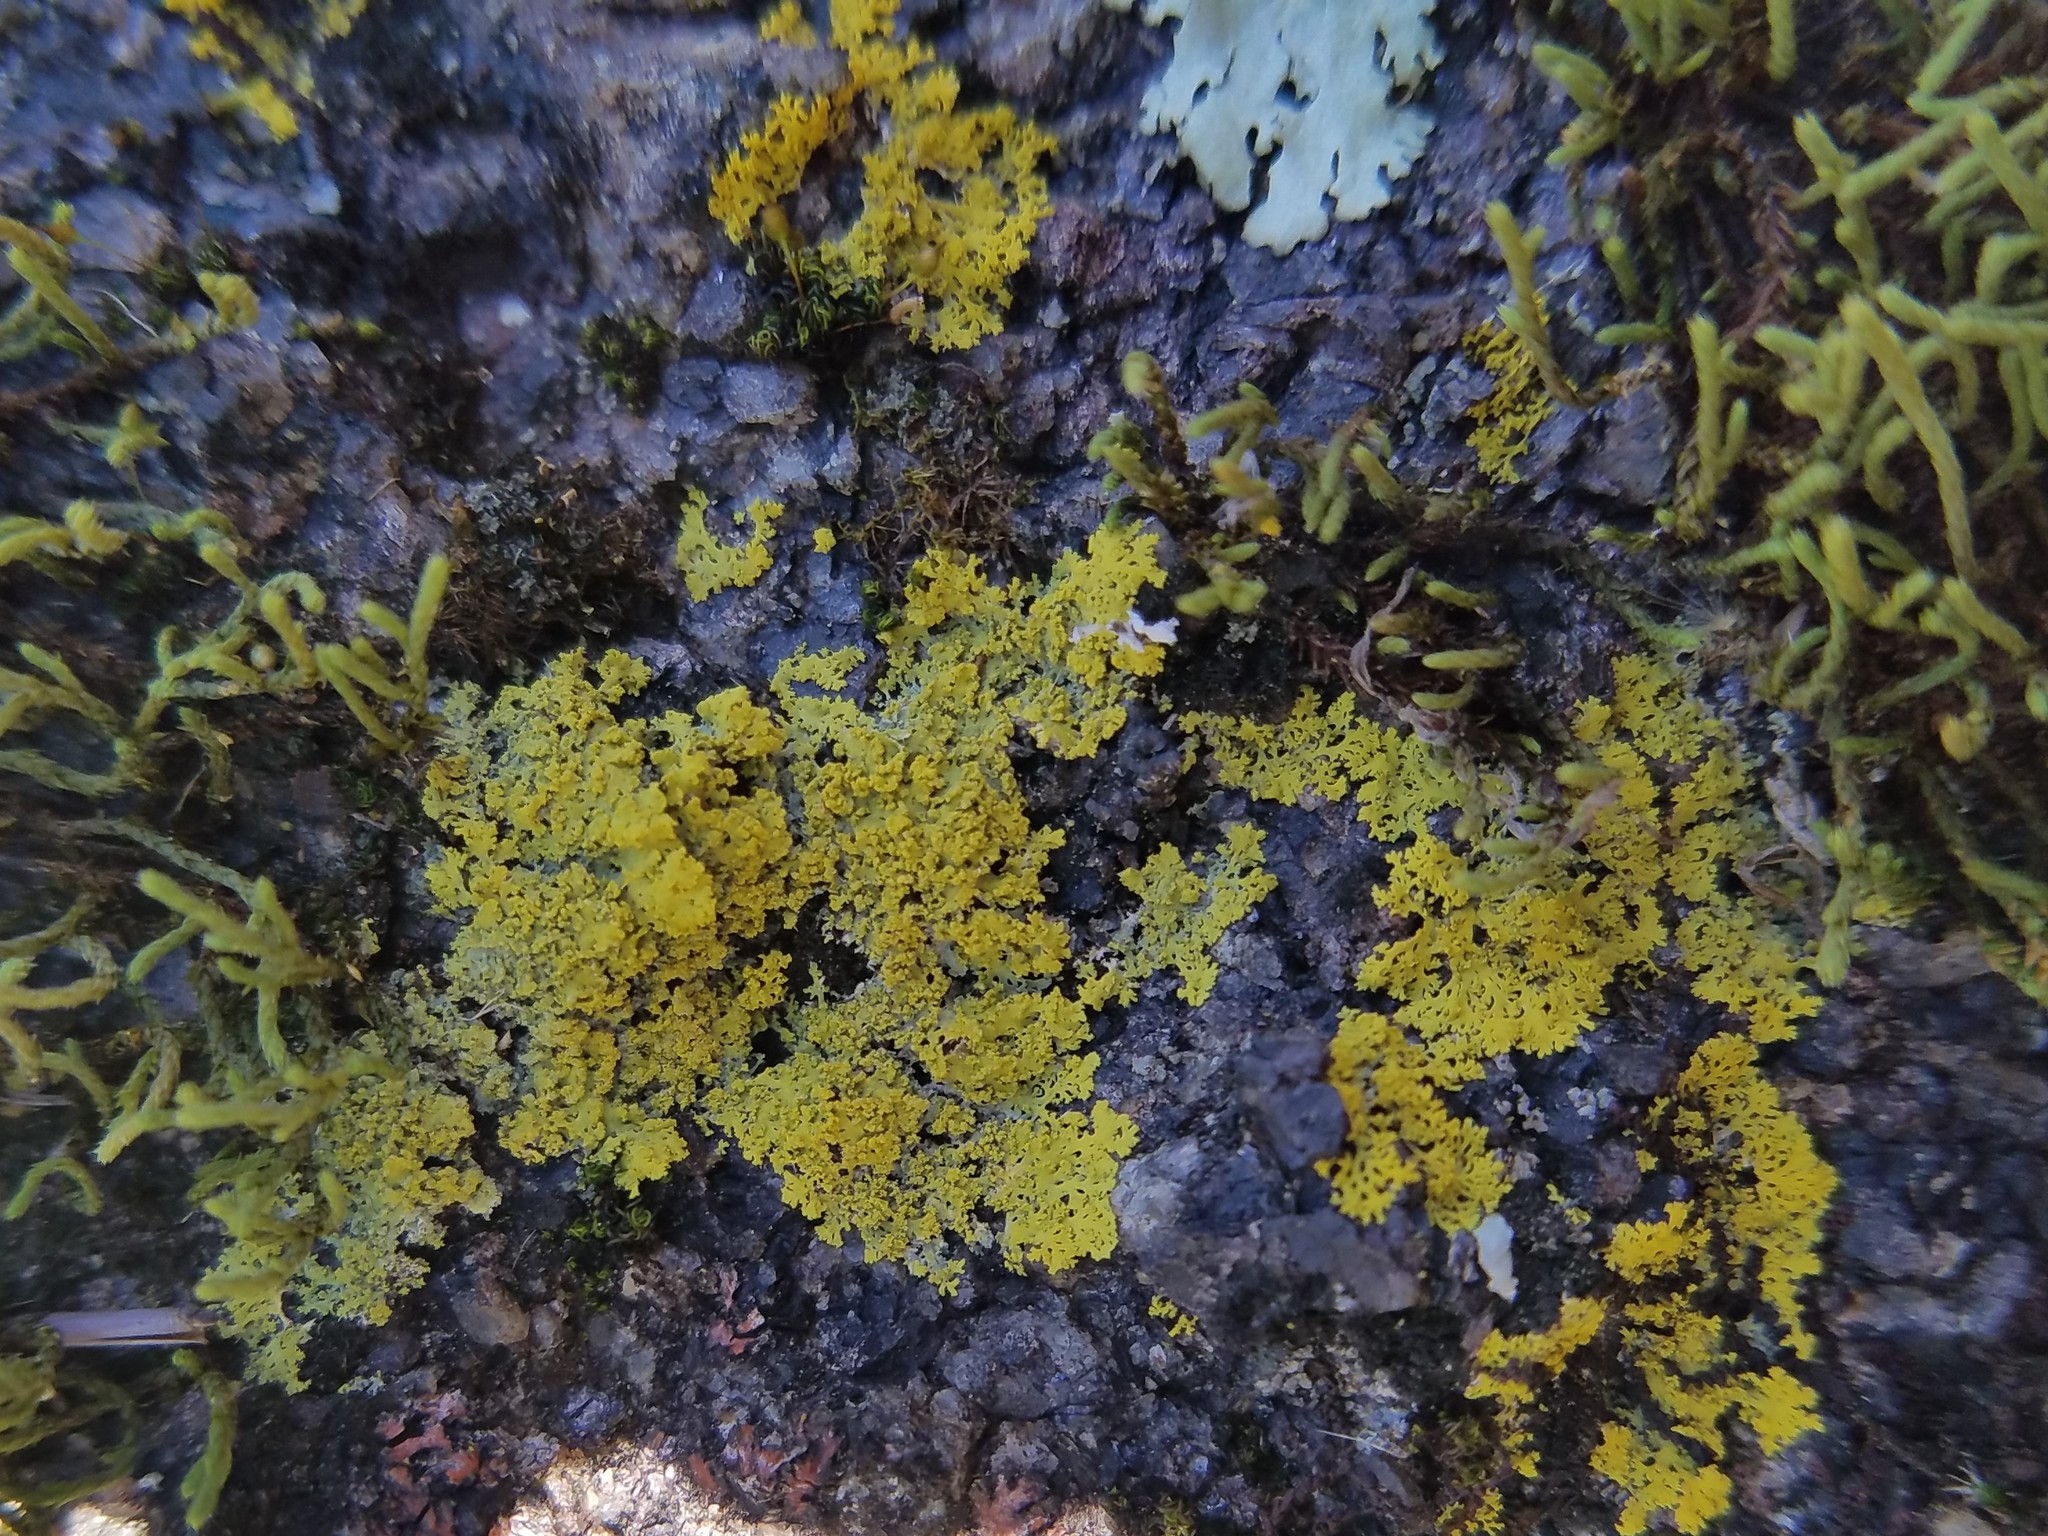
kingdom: Fungi
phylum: Ascomycota
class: Candelariomycetes
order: Candelariales
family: Candelariaceae
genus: Candelaria
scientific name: Candelaria concolor
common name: Candleflame lichen
